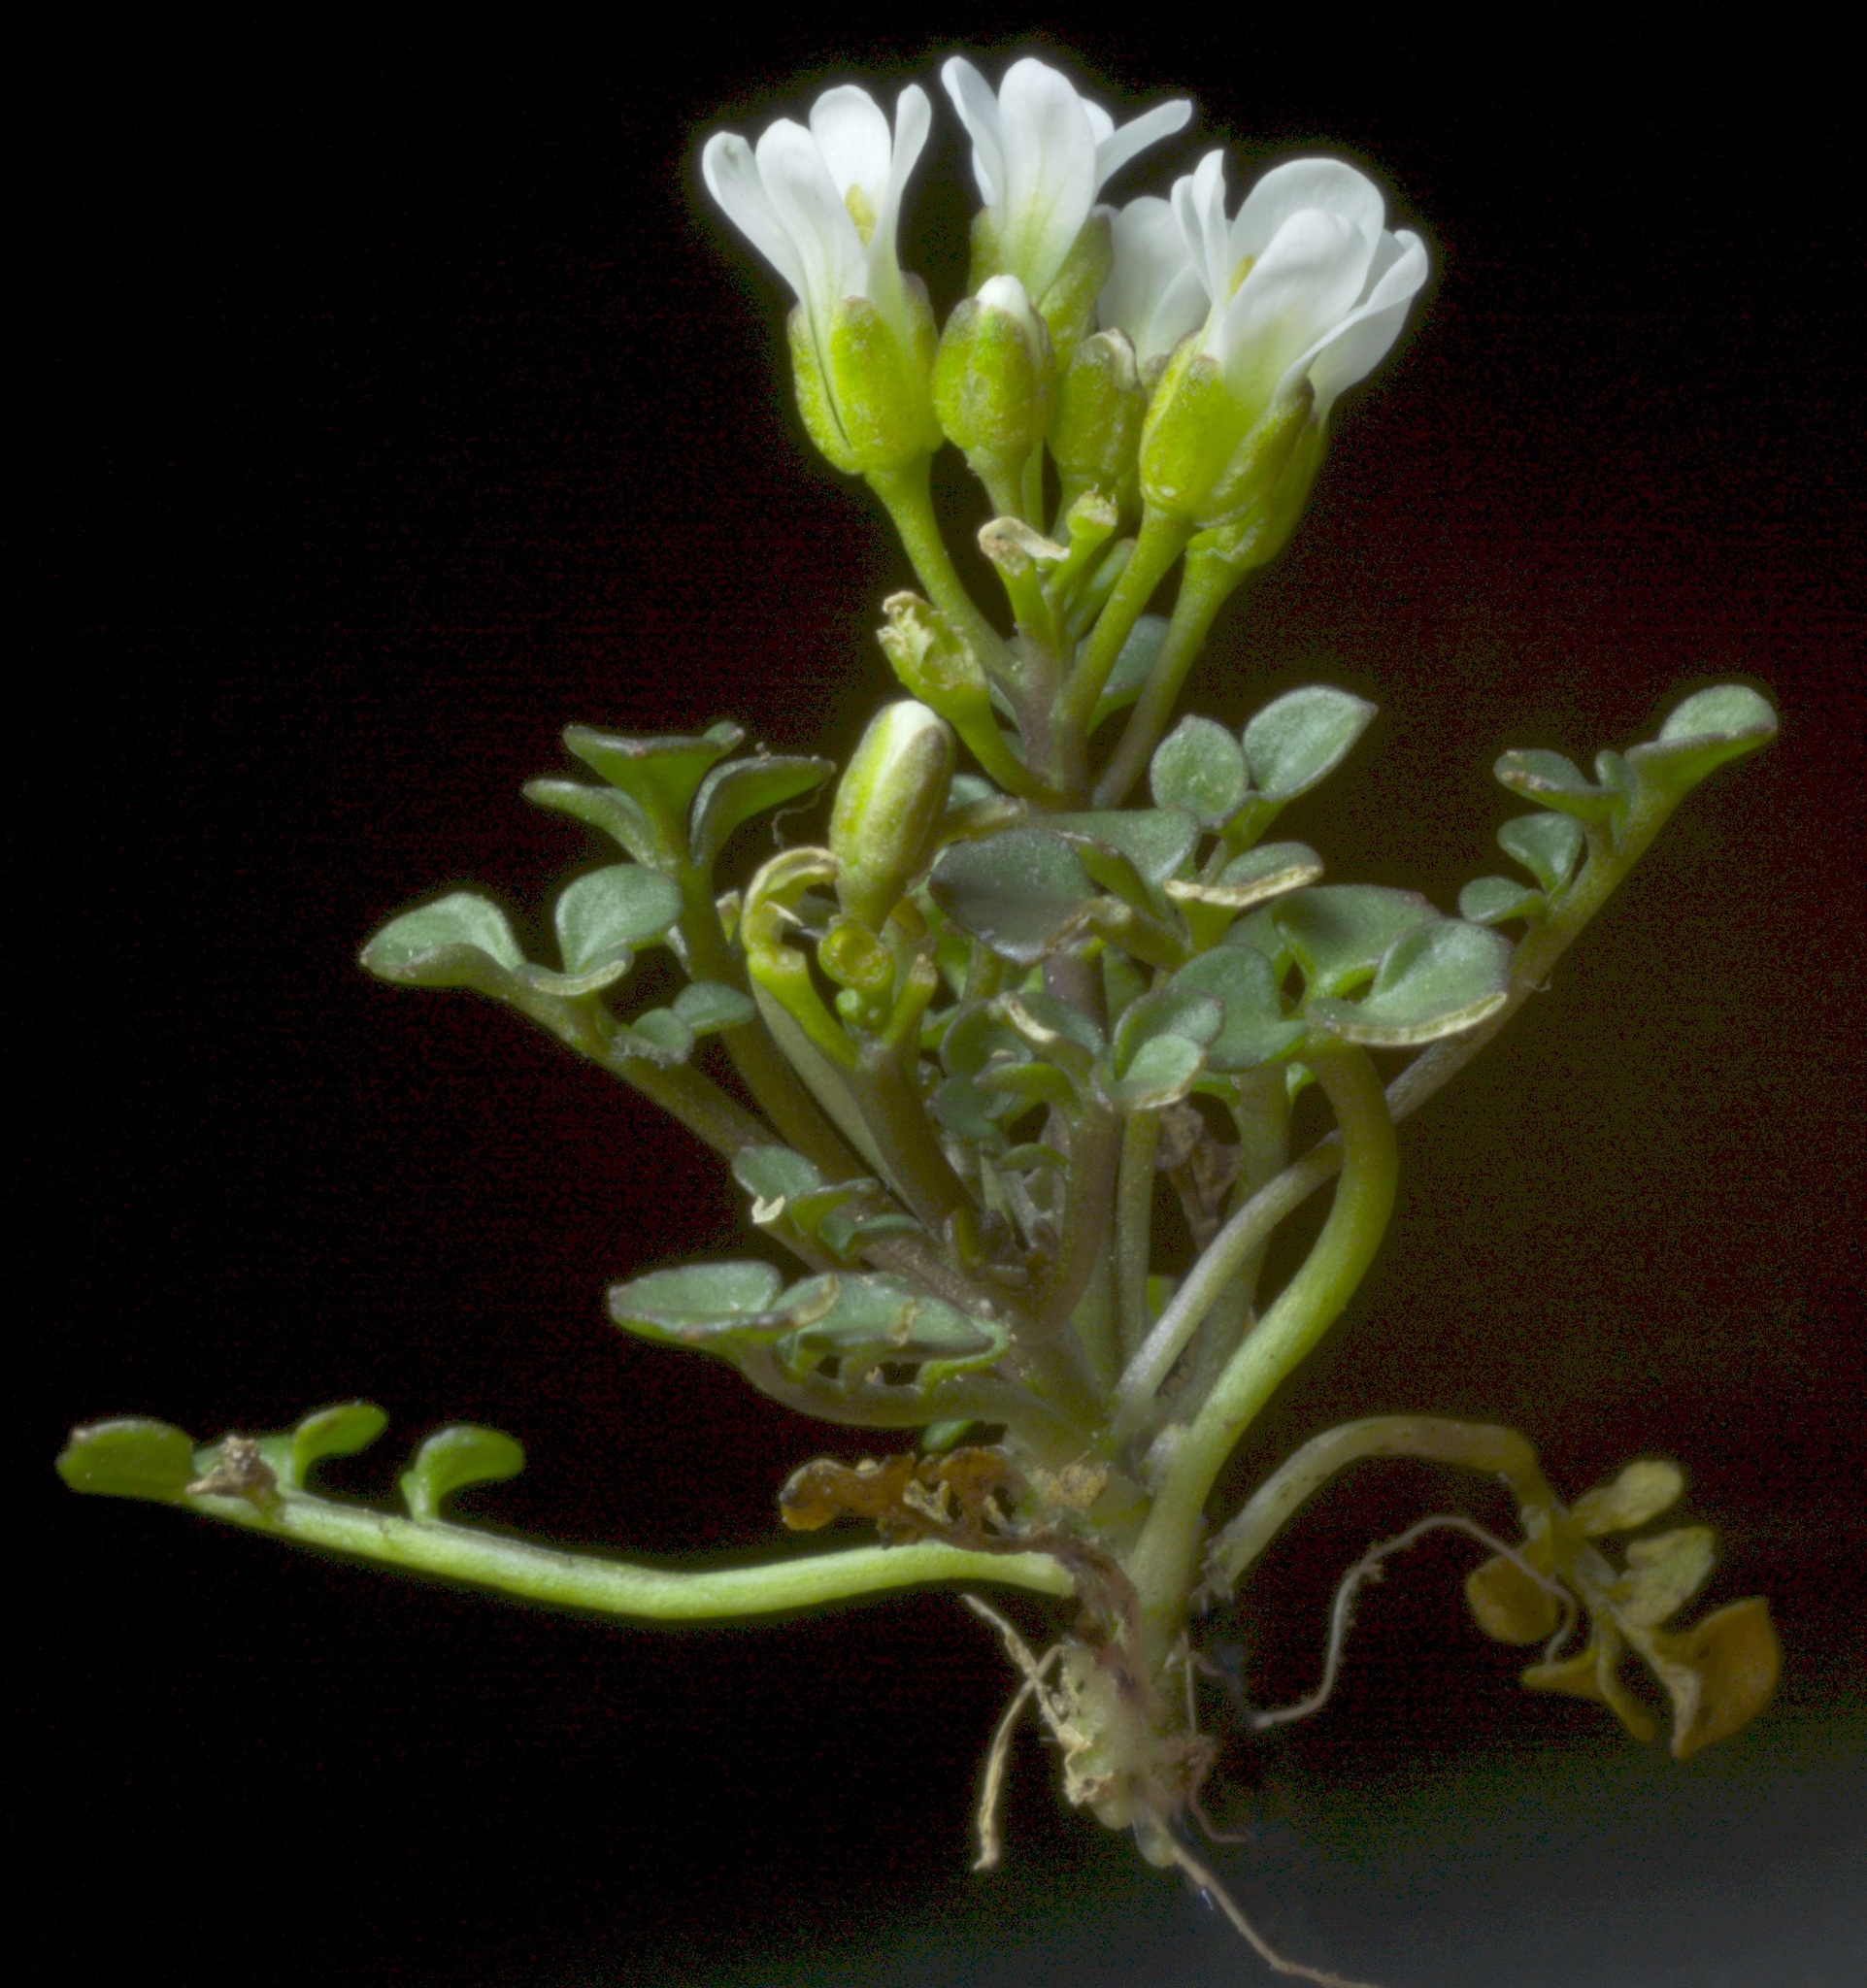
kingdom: Plantae
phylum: Tracheophyta
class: Magnoliopsida
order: Brassicales
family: Brassicaceae
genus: Cardamine
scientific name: Cardamine eminentia
